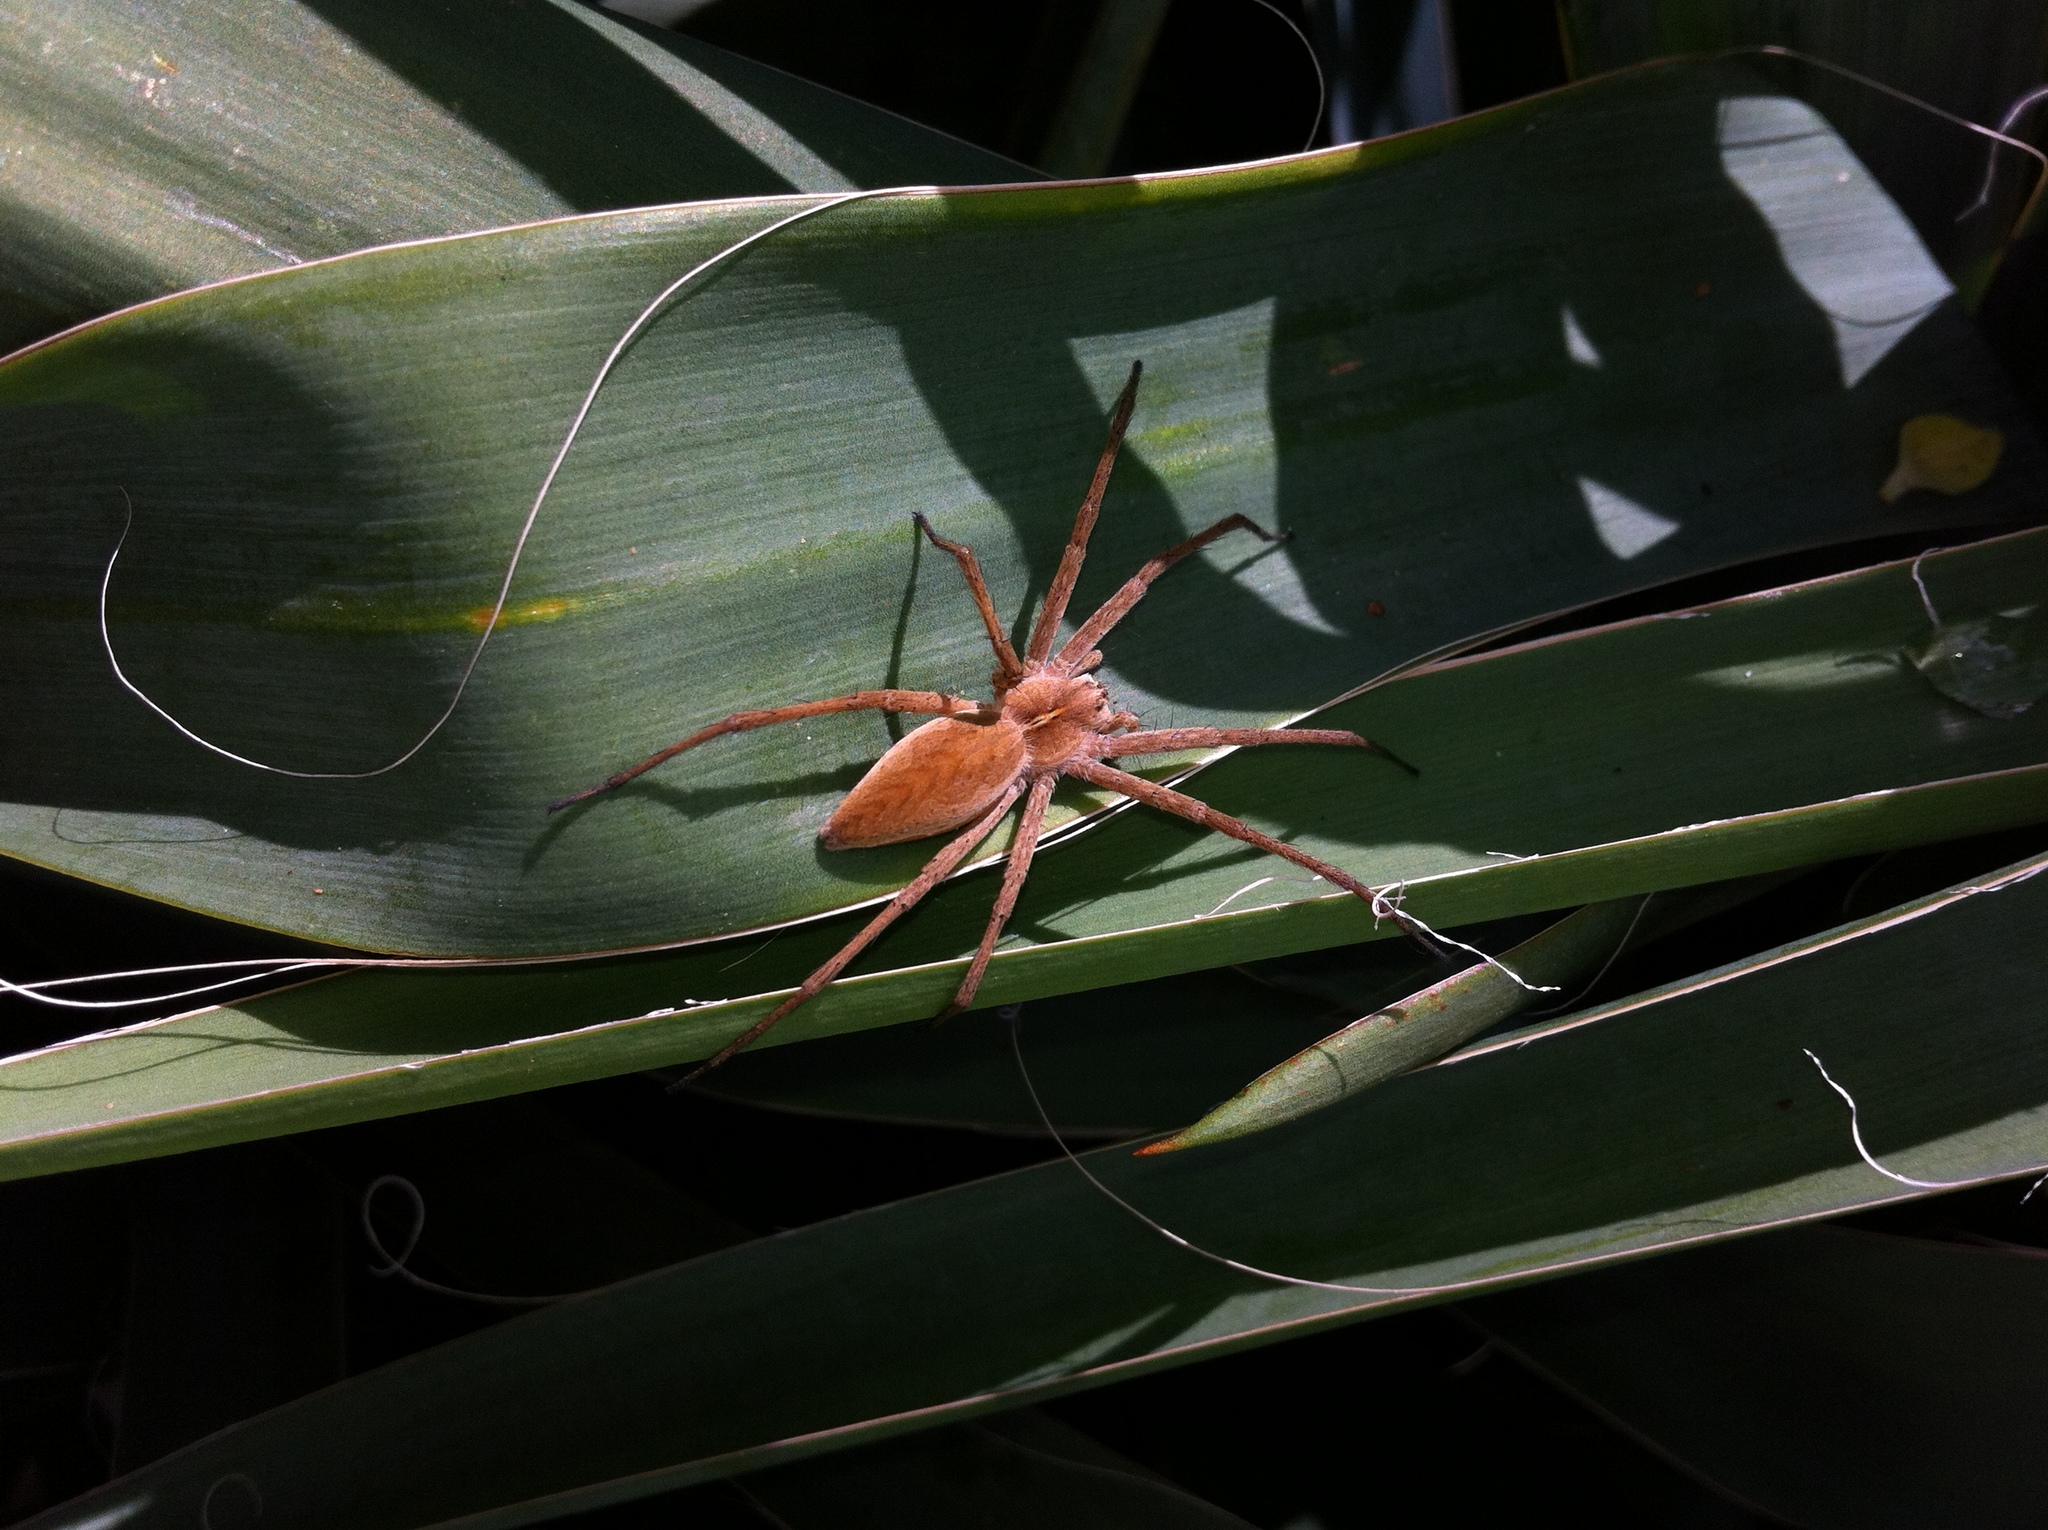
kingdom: Animalia
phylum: Arthropoda
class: Arachnida
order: Araneae
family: Pisauridae
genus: Pisaura
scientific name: Pisaura mirabilis
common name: Tent spider
